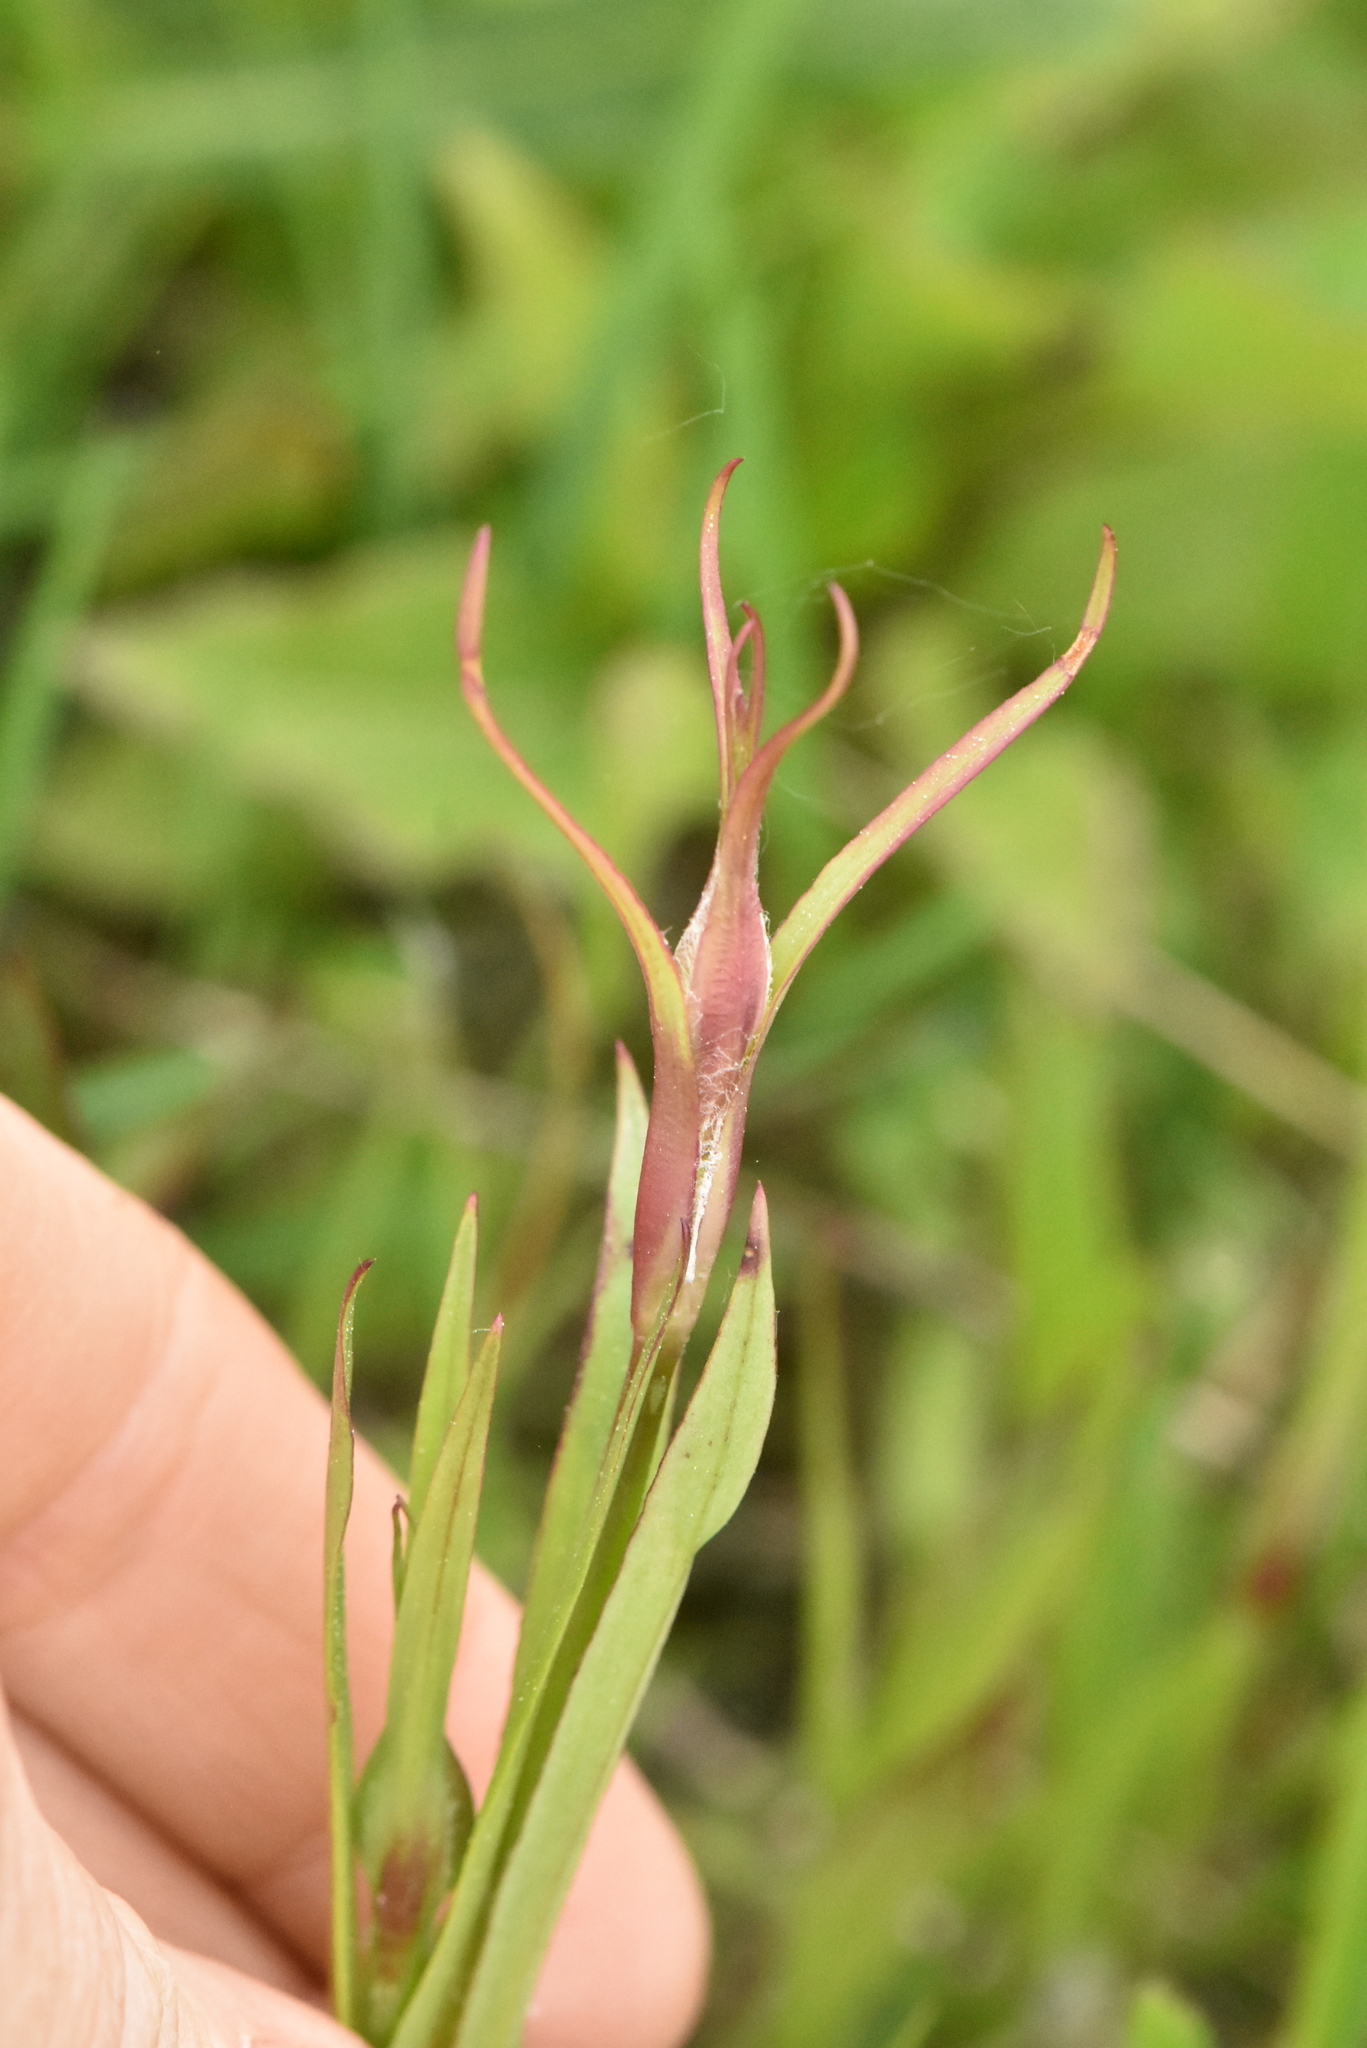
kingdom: Plantae
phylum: Tracheophyta
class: Magnoliopsida
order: Caryophyllales
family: Caryophyllaceae
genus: Viscaria
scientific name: Viscaria vulgaris
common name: Clammy campion
